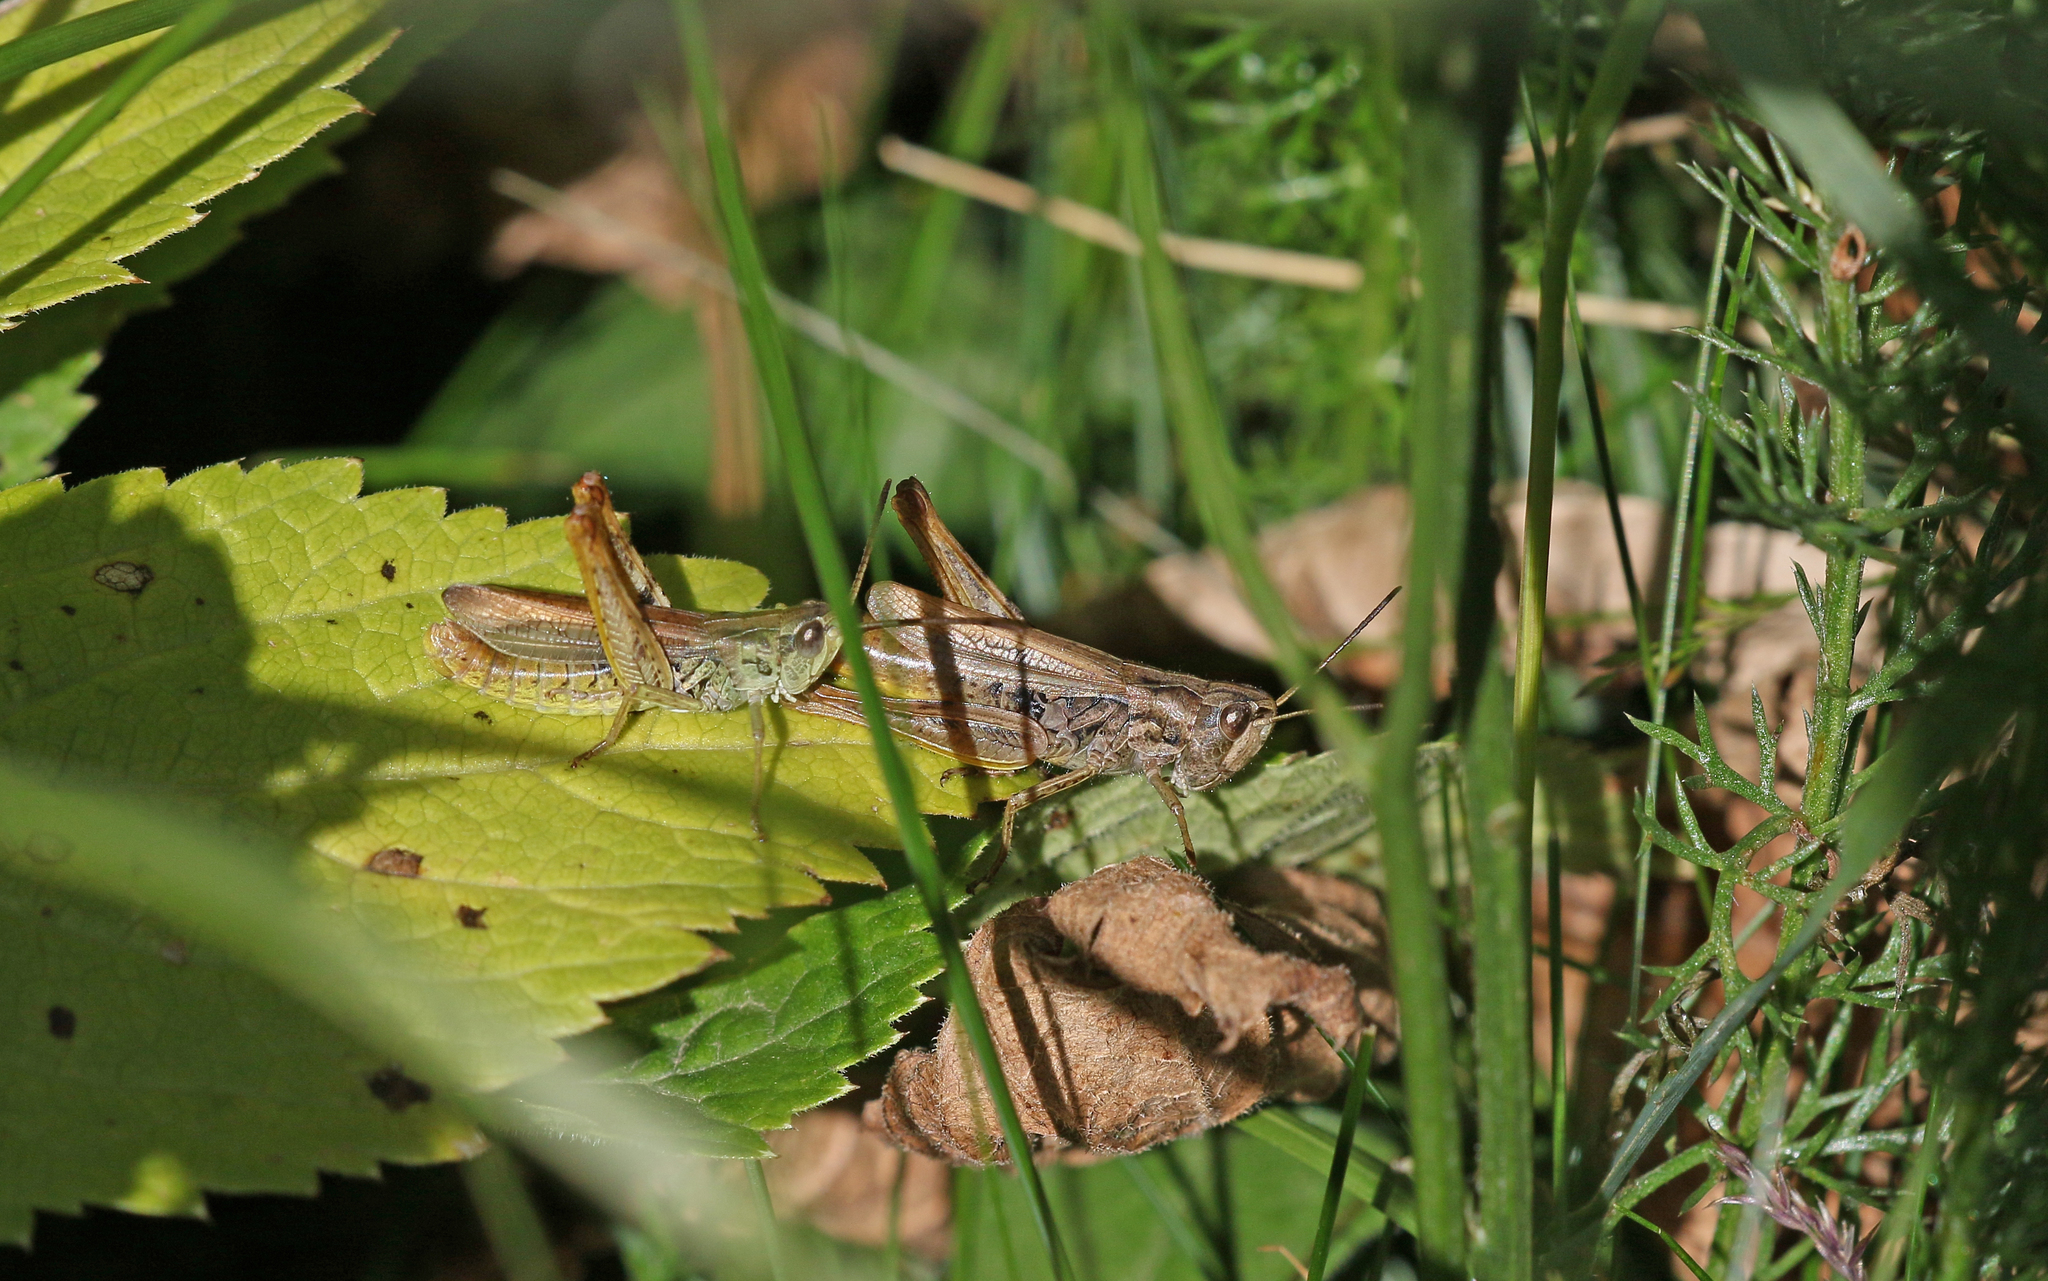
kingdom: Animalia
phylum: Arthropoda
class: Insecta
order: Orthoptera
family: Acrididae
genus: Chorthippus
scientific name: Chorthippus apricarius
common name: Upland field grasshopper
